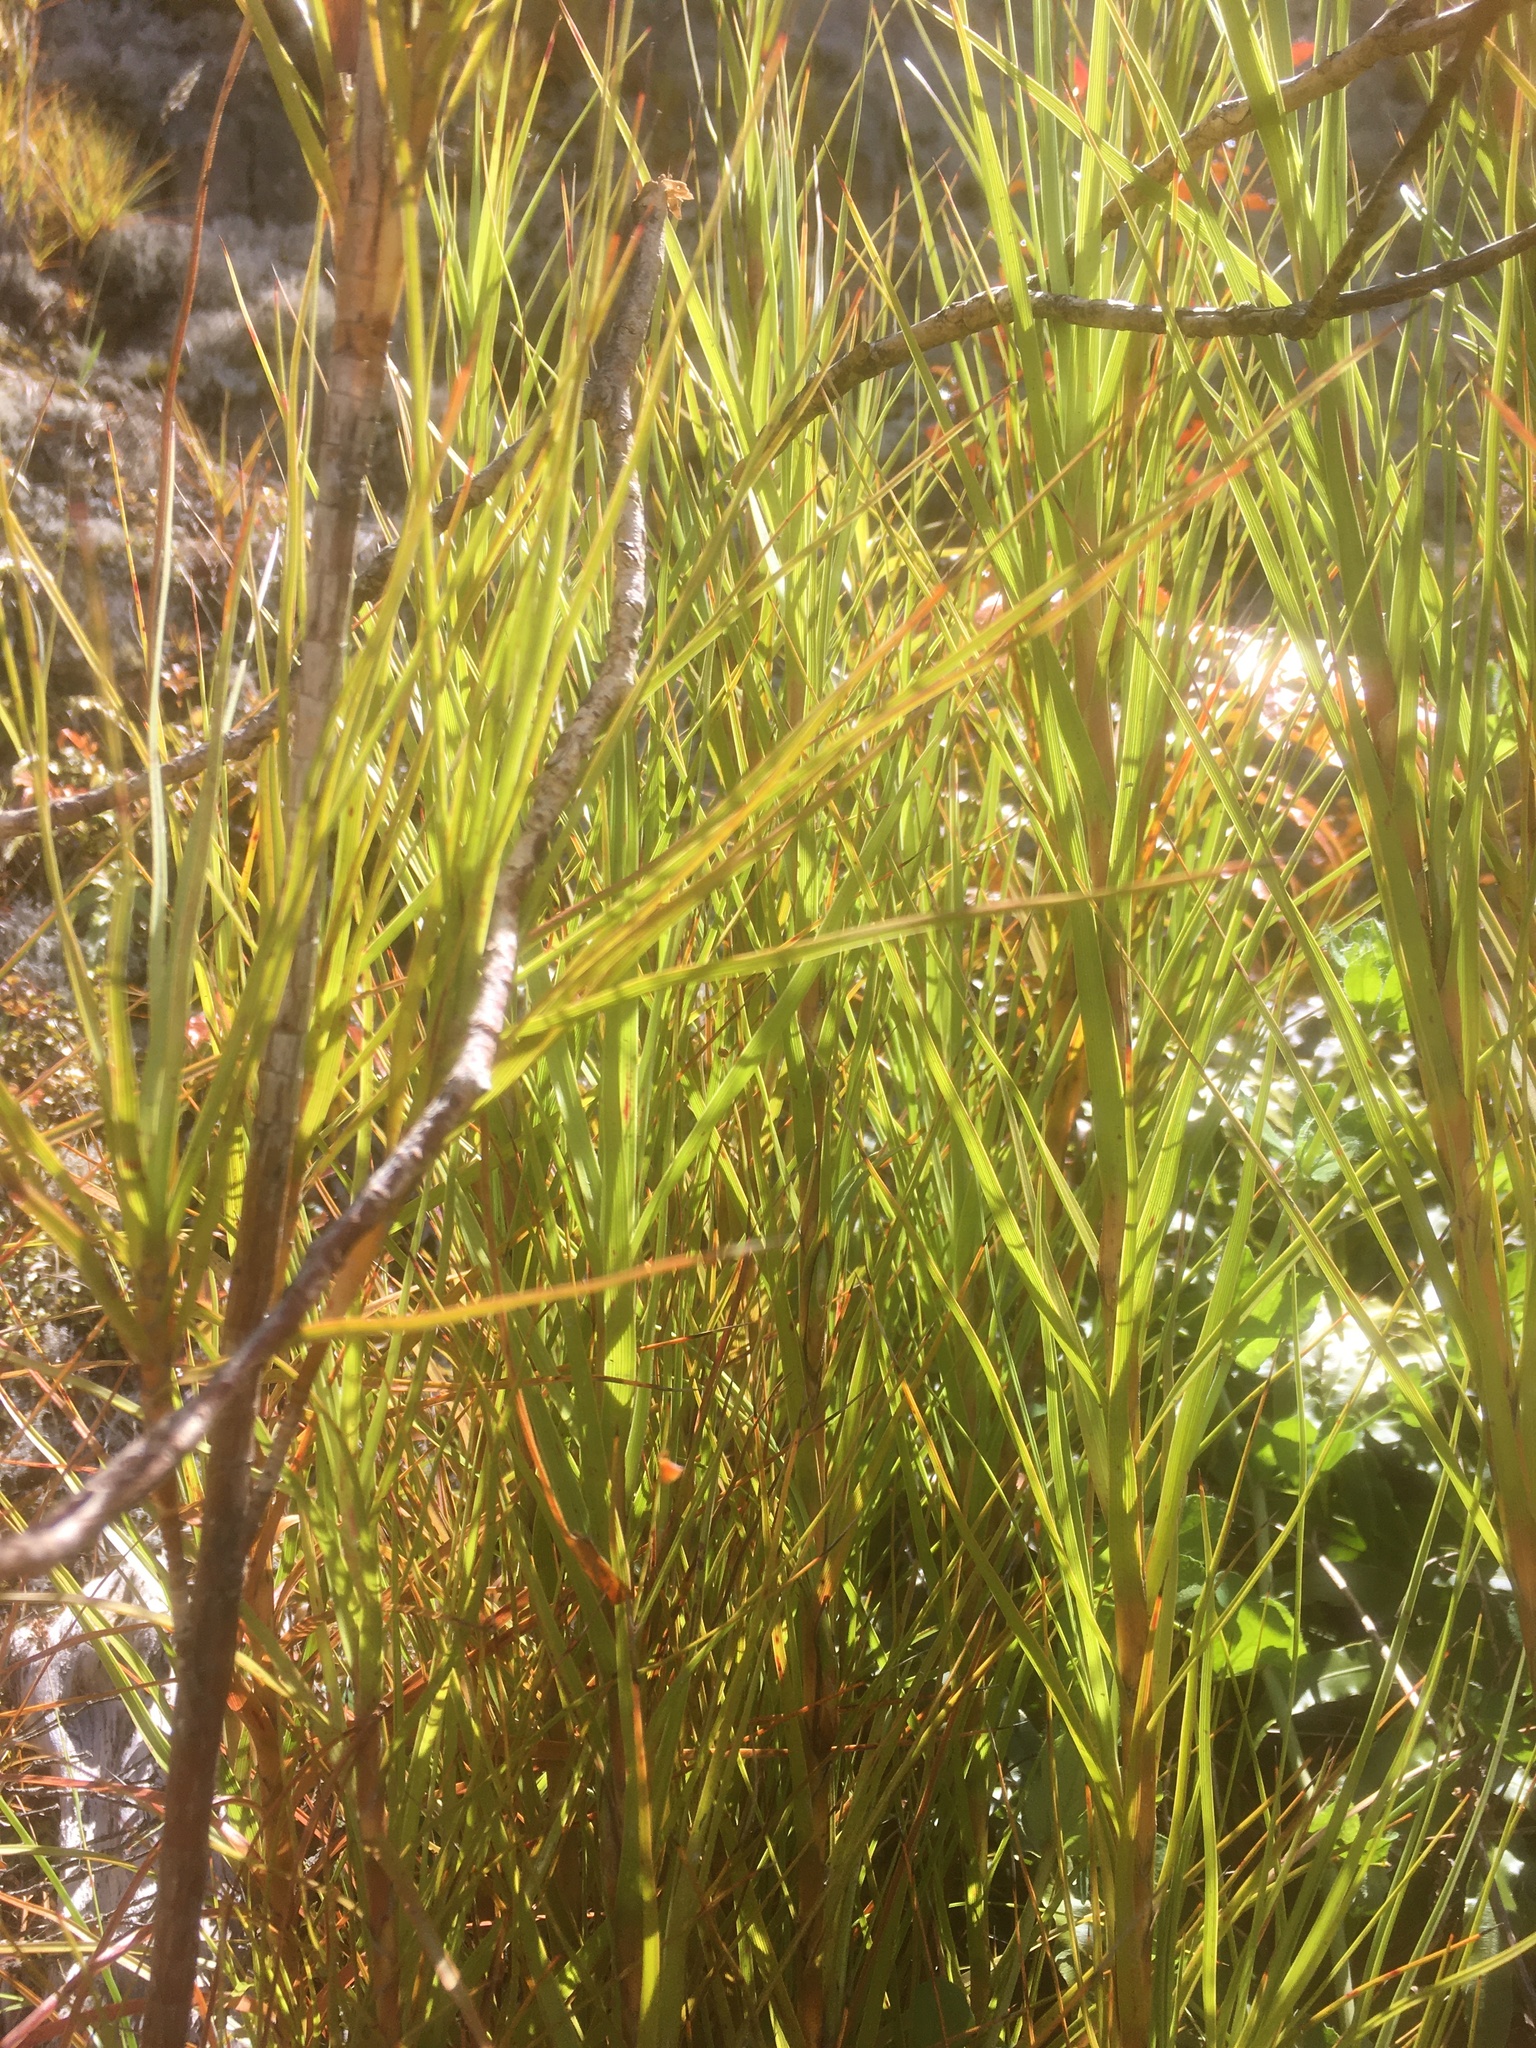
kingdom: Plantae
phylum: Tracheophyta
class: Magnoliopsida
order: Ericales
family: Ericaceae
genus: Dracophyllum
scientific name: Dracophyllum longifolium
